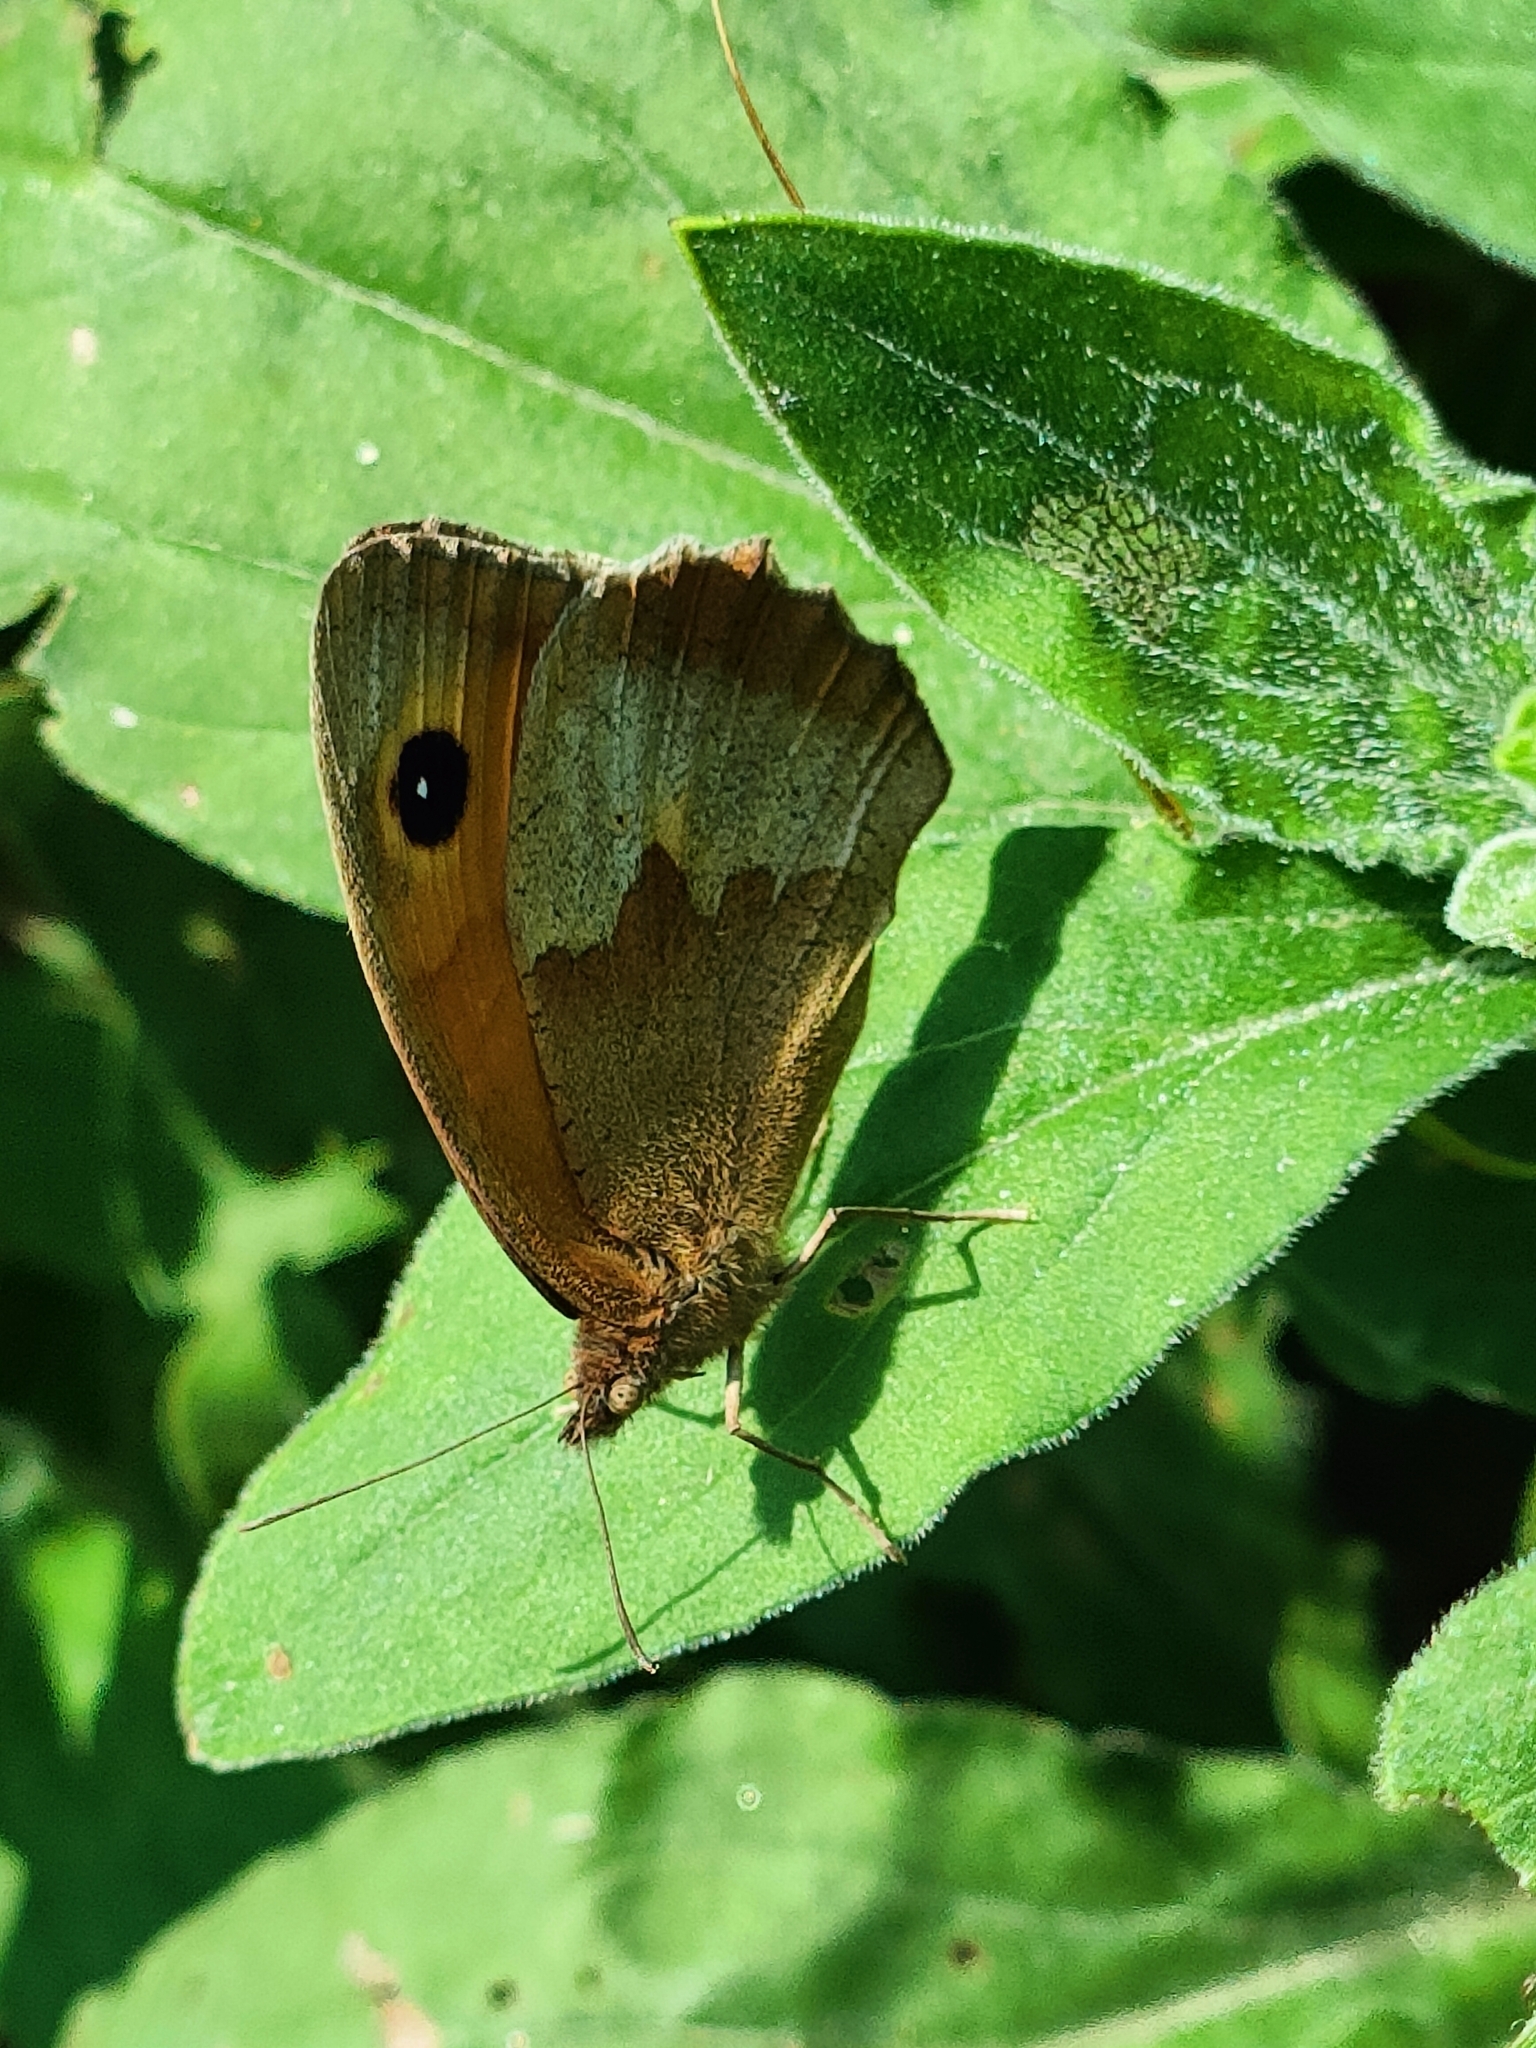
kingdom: Animalia
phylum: Arthropoda
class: Insecta
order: Lepidoptera
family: Nymphalidae
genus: Maniola
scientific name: Maniola jurtina
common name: Meadow brown
